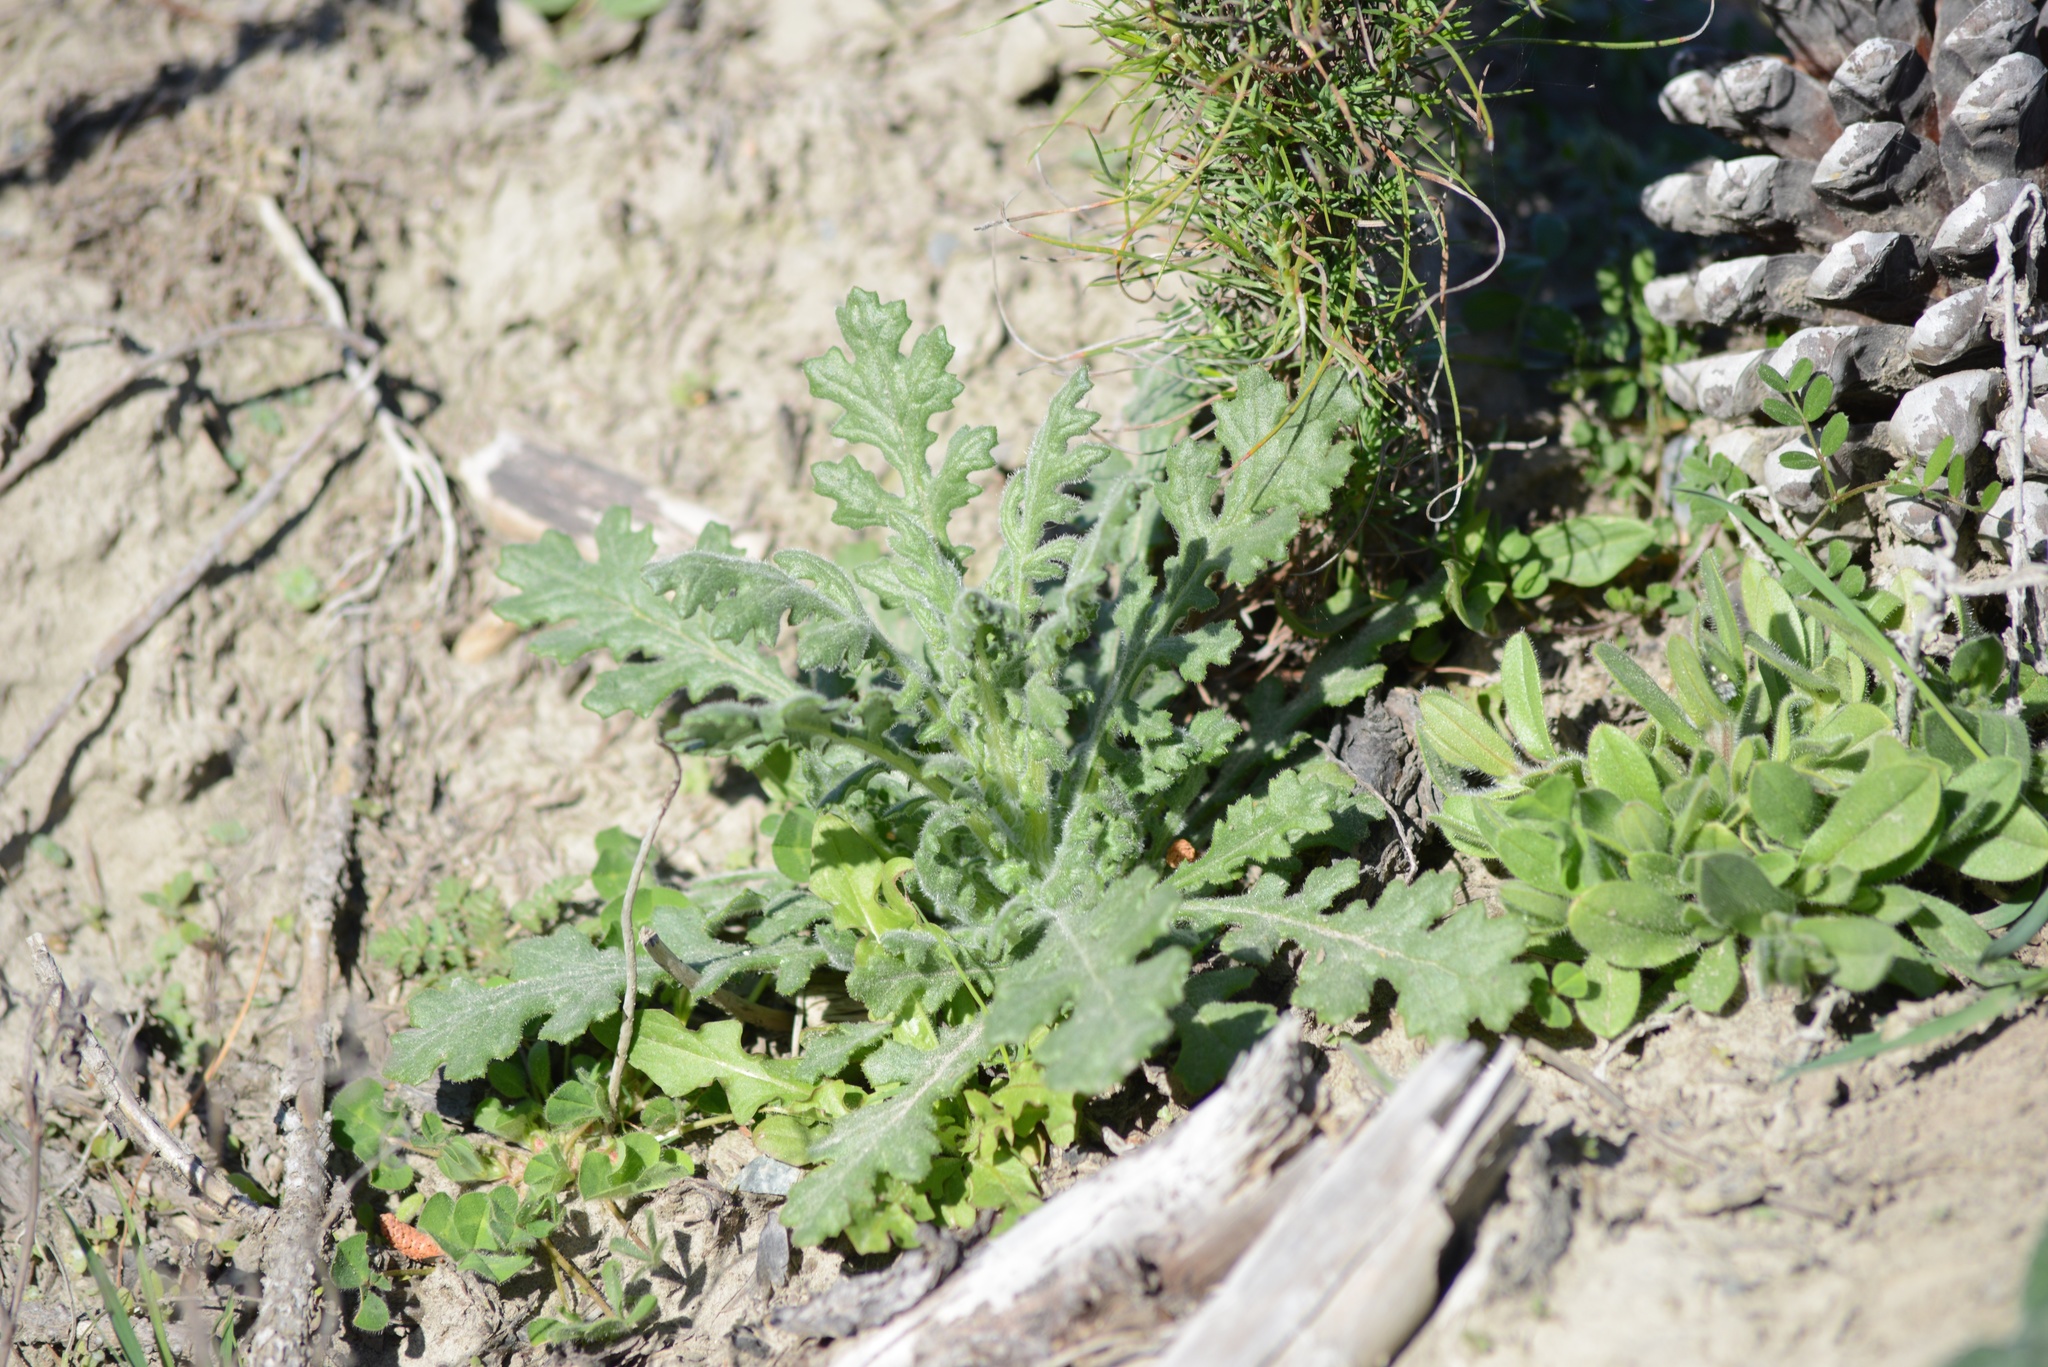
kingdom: Plantae
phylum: Tracheophyta
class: Magnoliopsida
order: Asterales
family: Asteraceae
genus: Senecio
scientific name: Senecio sylvaticus
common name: Woodland ragwort
